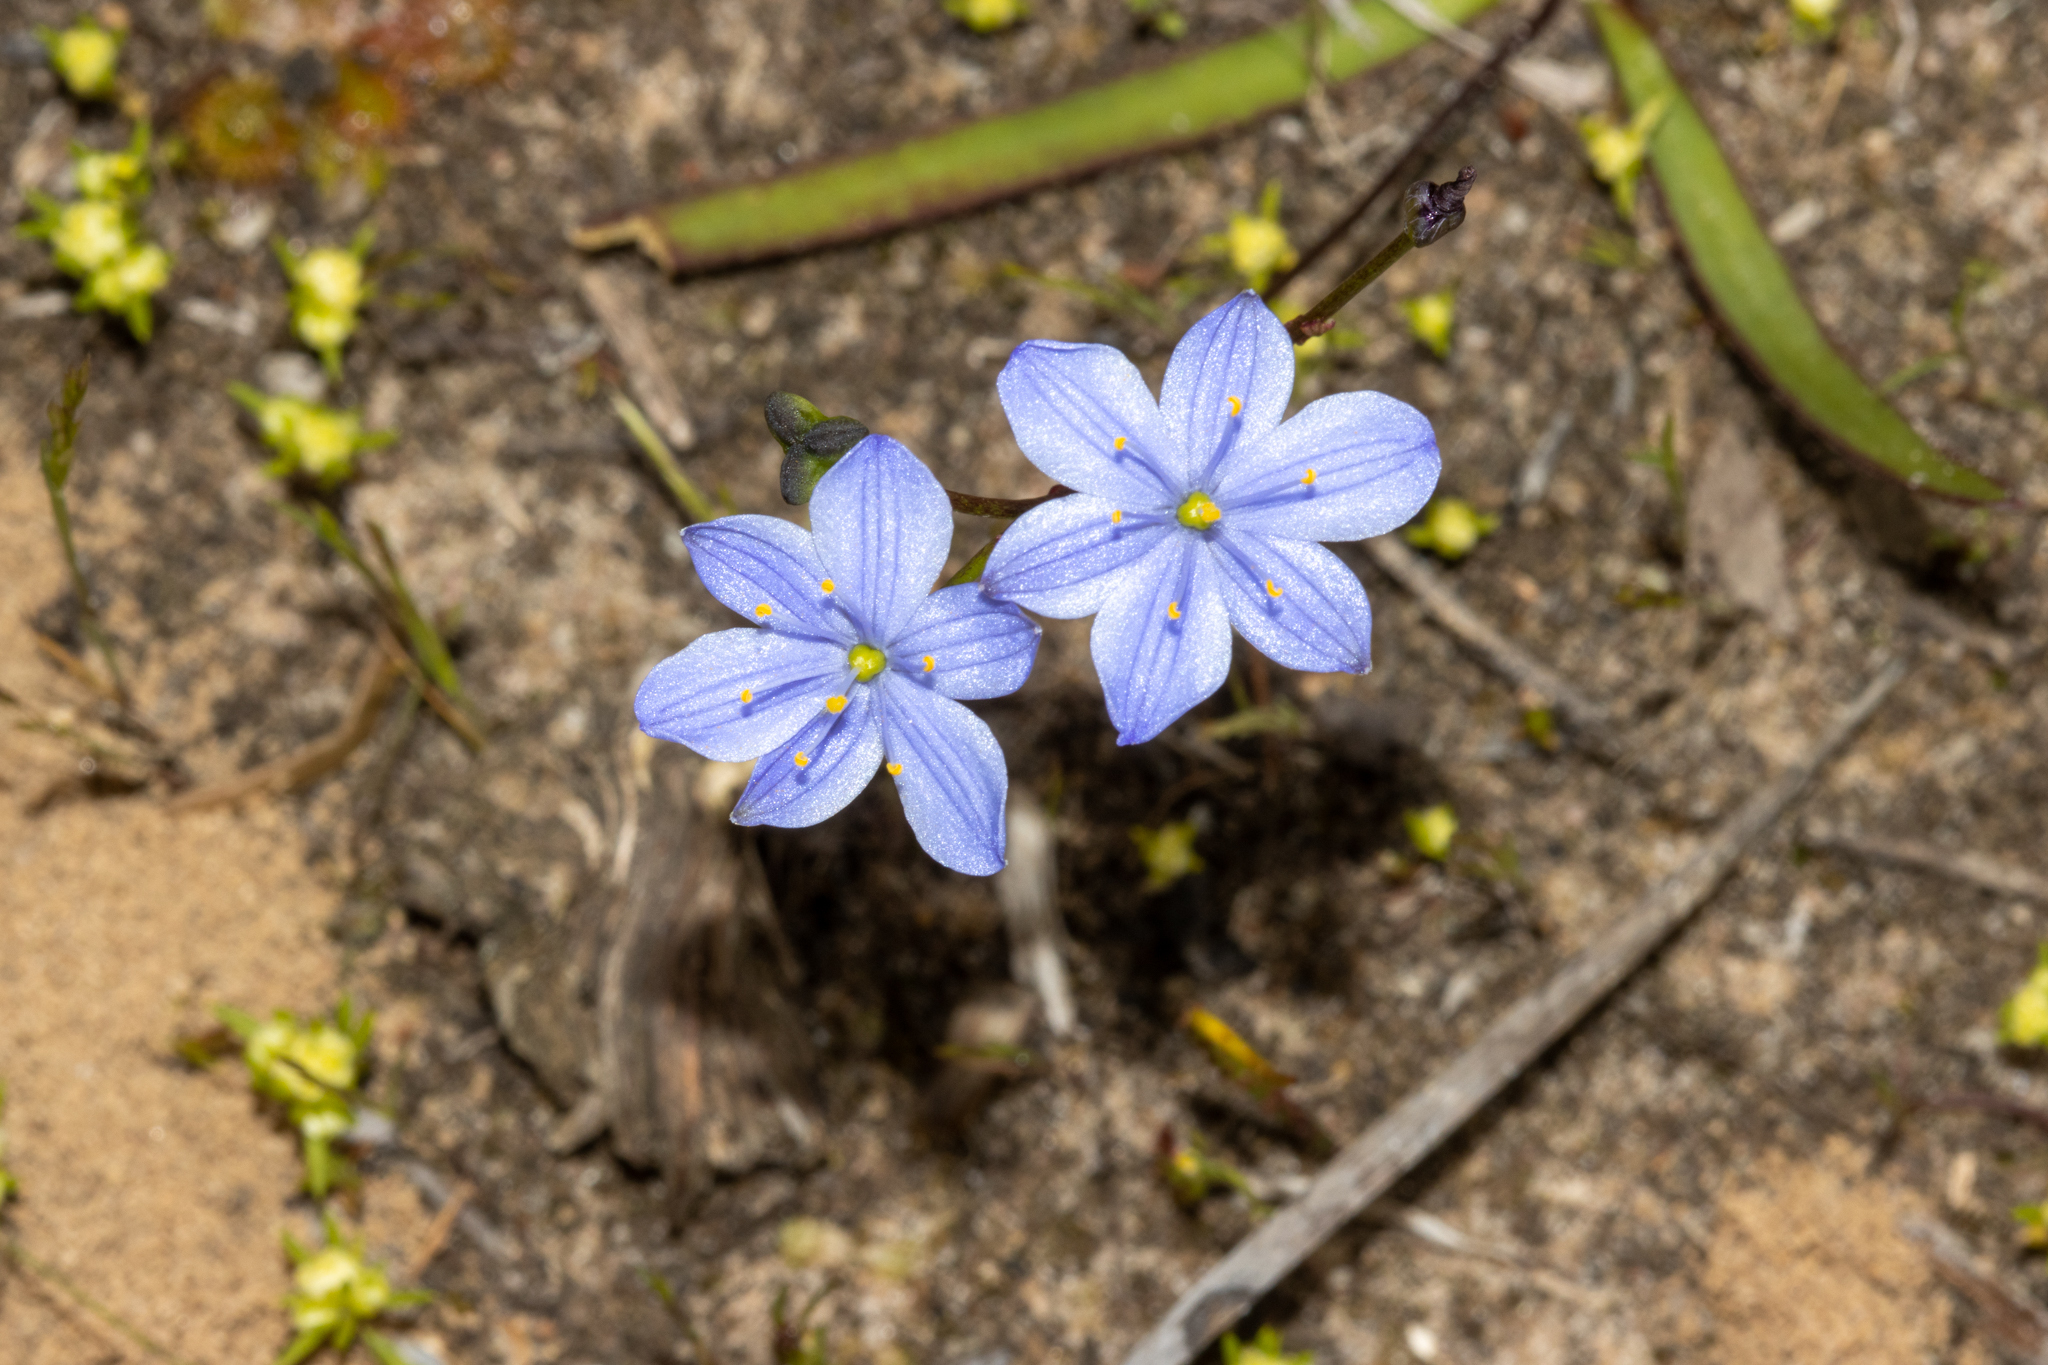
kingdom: Plantae
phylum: Tracheophyta
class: Liliopsida
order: Asparagales
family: Asphodelaceae
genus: Chamaescilla
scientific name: Chamaescilla corymbosa
